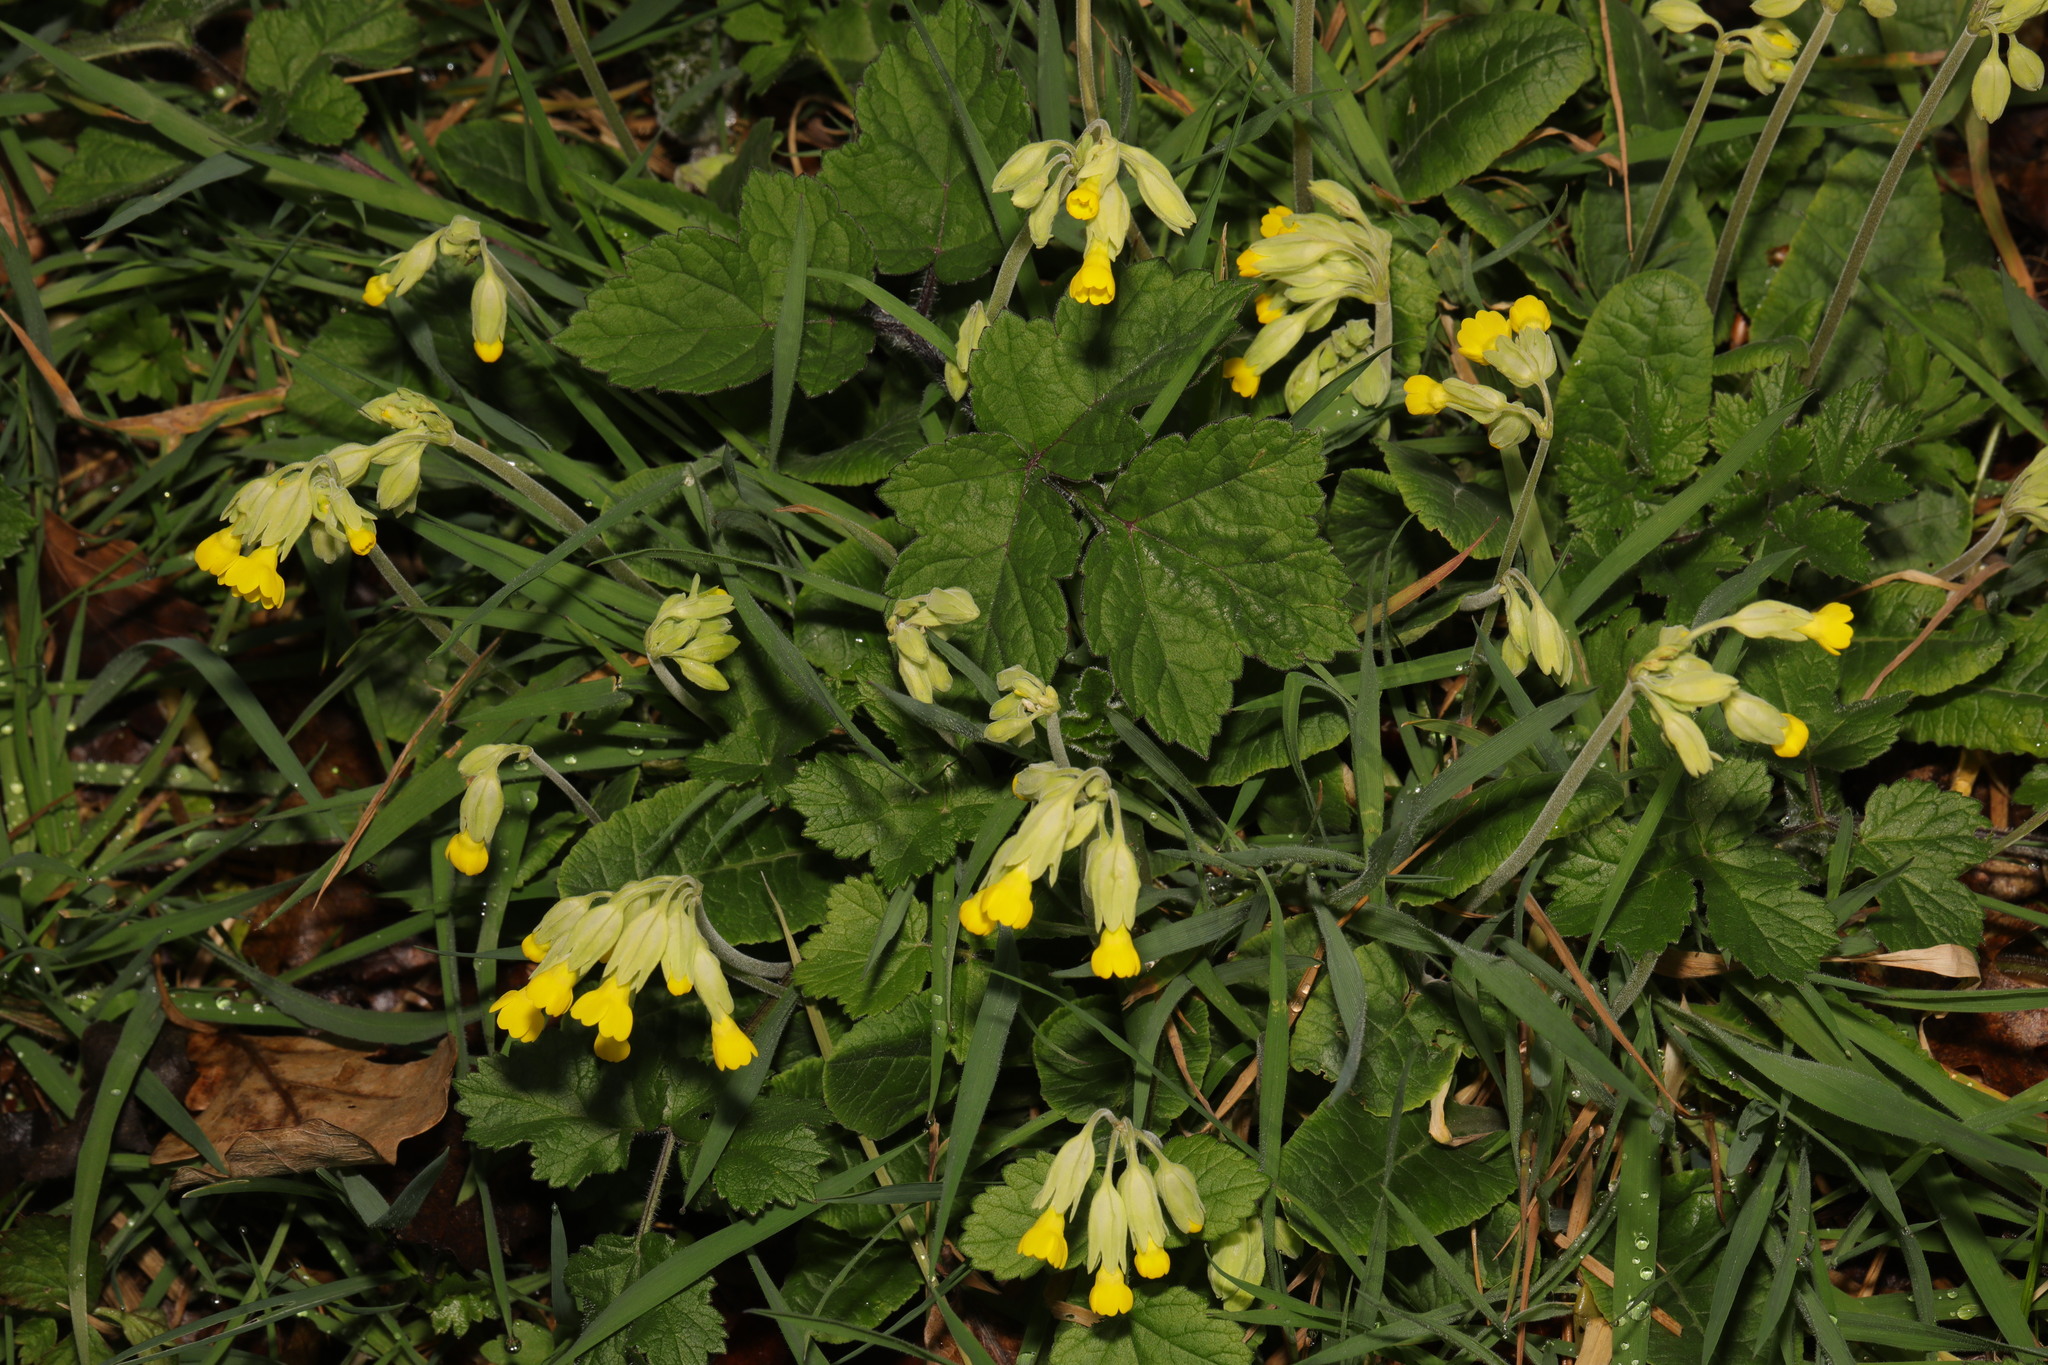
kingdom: Plantae
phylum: Tracheophyta
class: Magnoliopsida
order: Ericales
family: Primulaceae
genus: Primula
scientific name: Primula veris
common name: Cowslip
